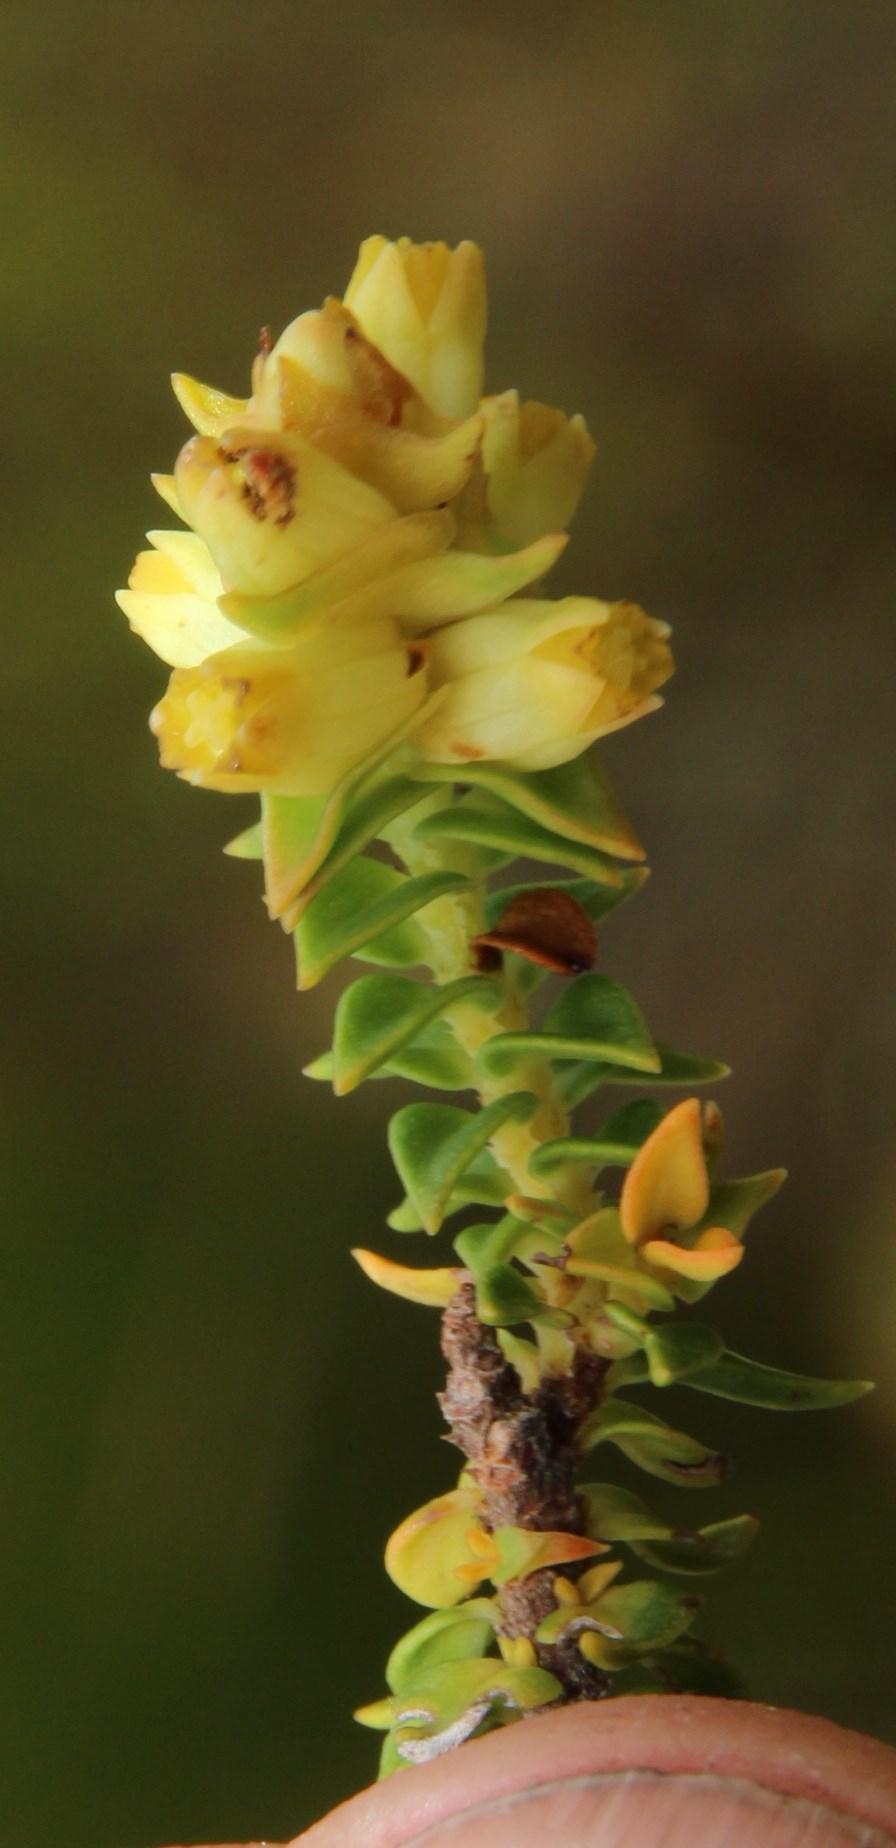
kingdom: Plantae
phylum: Tracheophyta
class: Magnoliopsida
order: Myrtales
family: Penaeaceae
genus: Penaea
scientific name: Penaea mucronata
